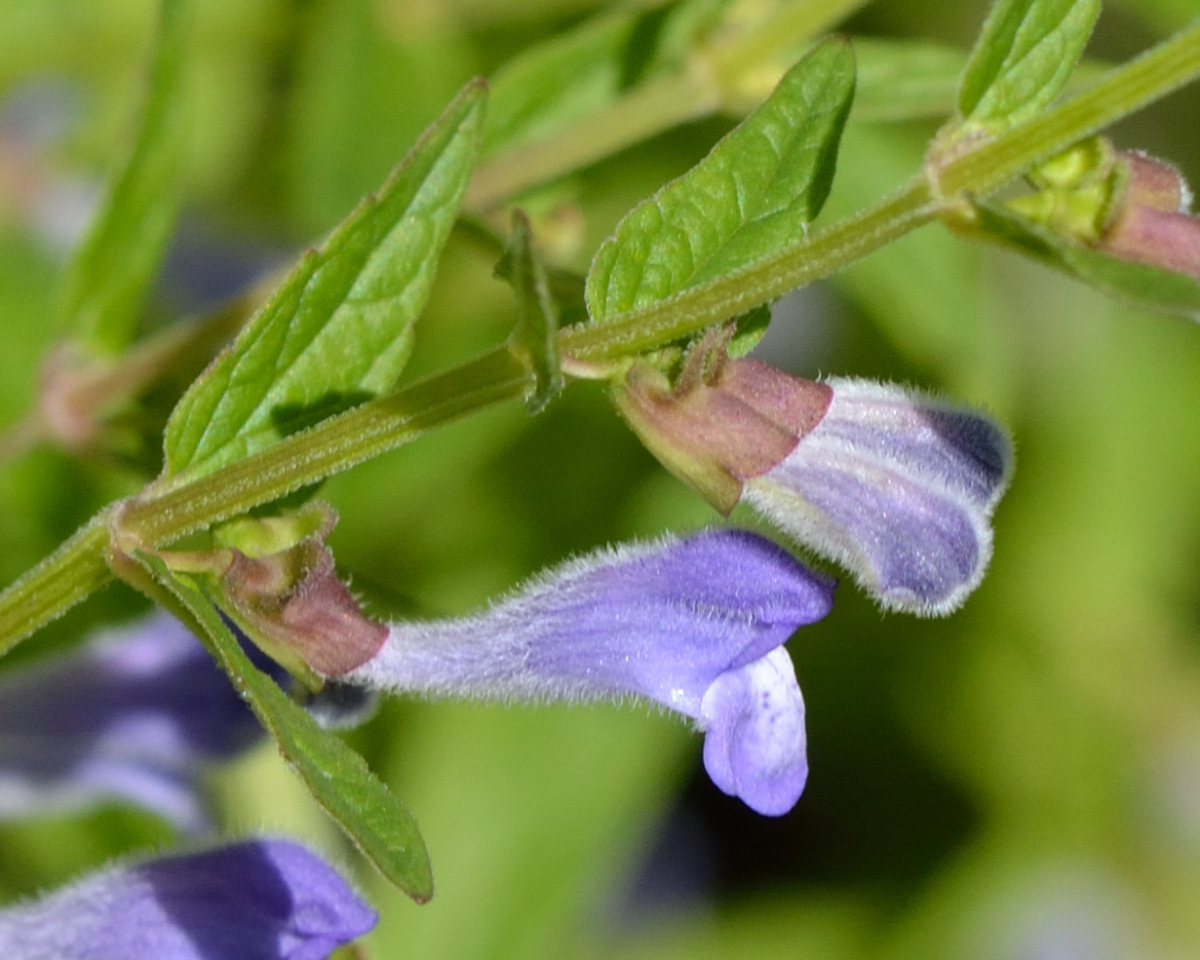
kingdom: Plantae
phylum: Tracheophyta
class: Magnoliopsida
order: Lamiales
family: Lamiaceae
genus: Scutellaria
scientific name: Scutellaria galericulata
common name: Skullcap
